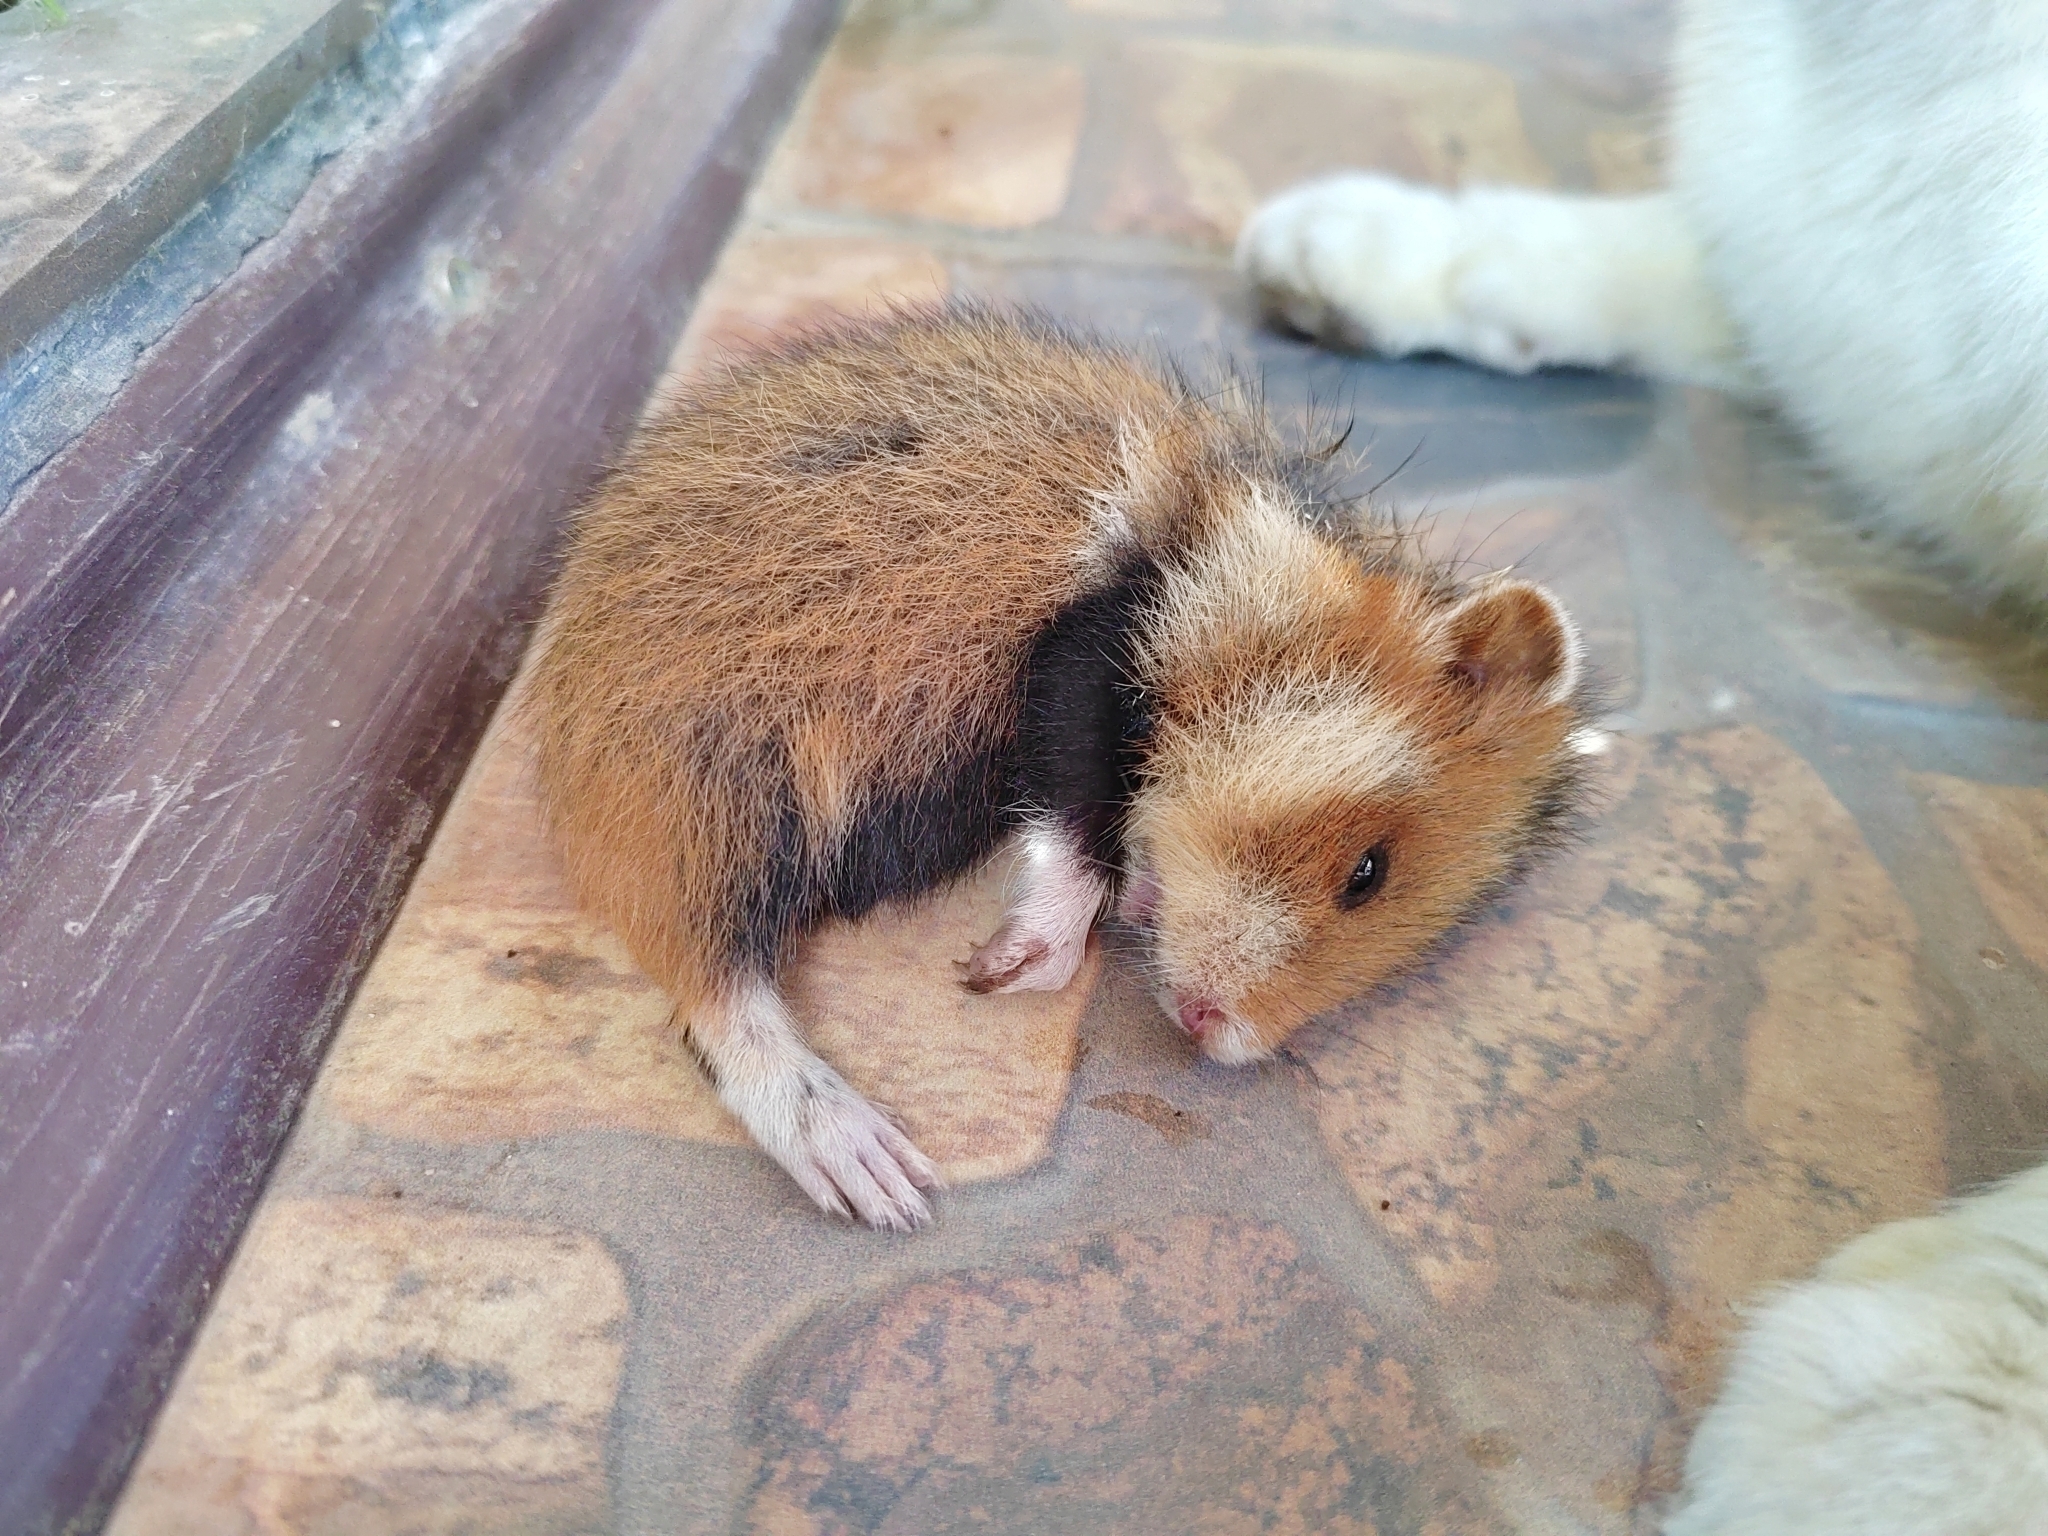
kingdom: Animalia
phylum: Chordata
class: Mammalia
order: Rodentia
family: Cricetidae
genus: Cricetus
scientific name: Cricetus cricetus
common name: Common hamster
